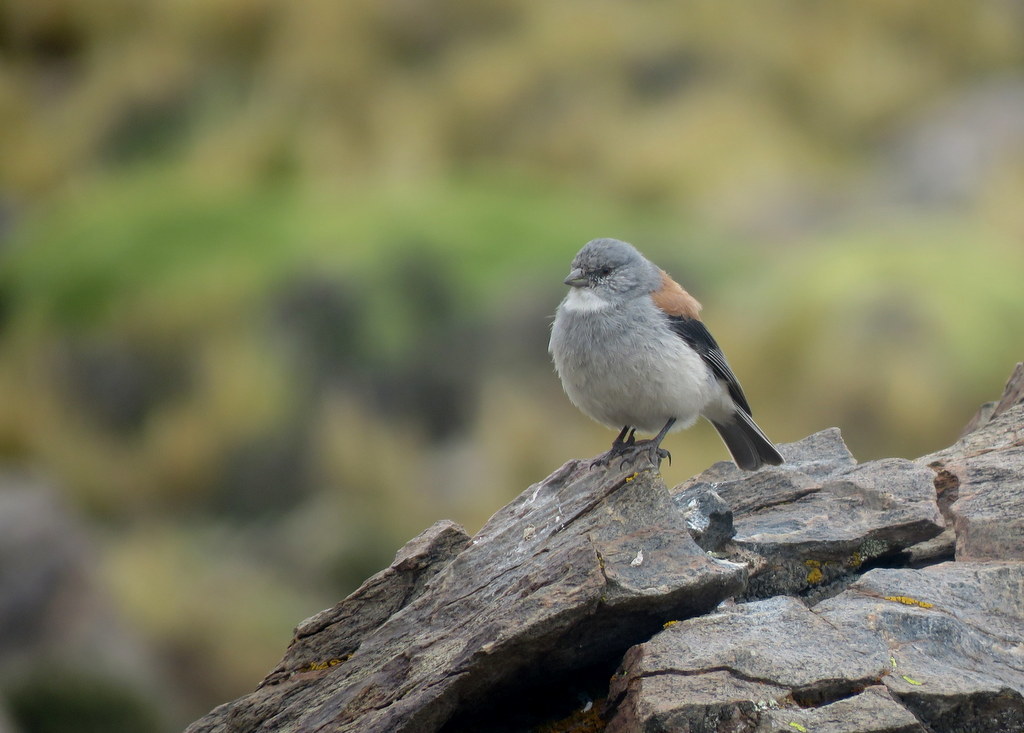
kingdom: Animalia
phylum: Chordata
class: Aves
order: Passeriformes
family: Thraupidae
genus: Idiopsar
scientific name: Idiopsar dorsalis
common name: Red-backed sierra finch
